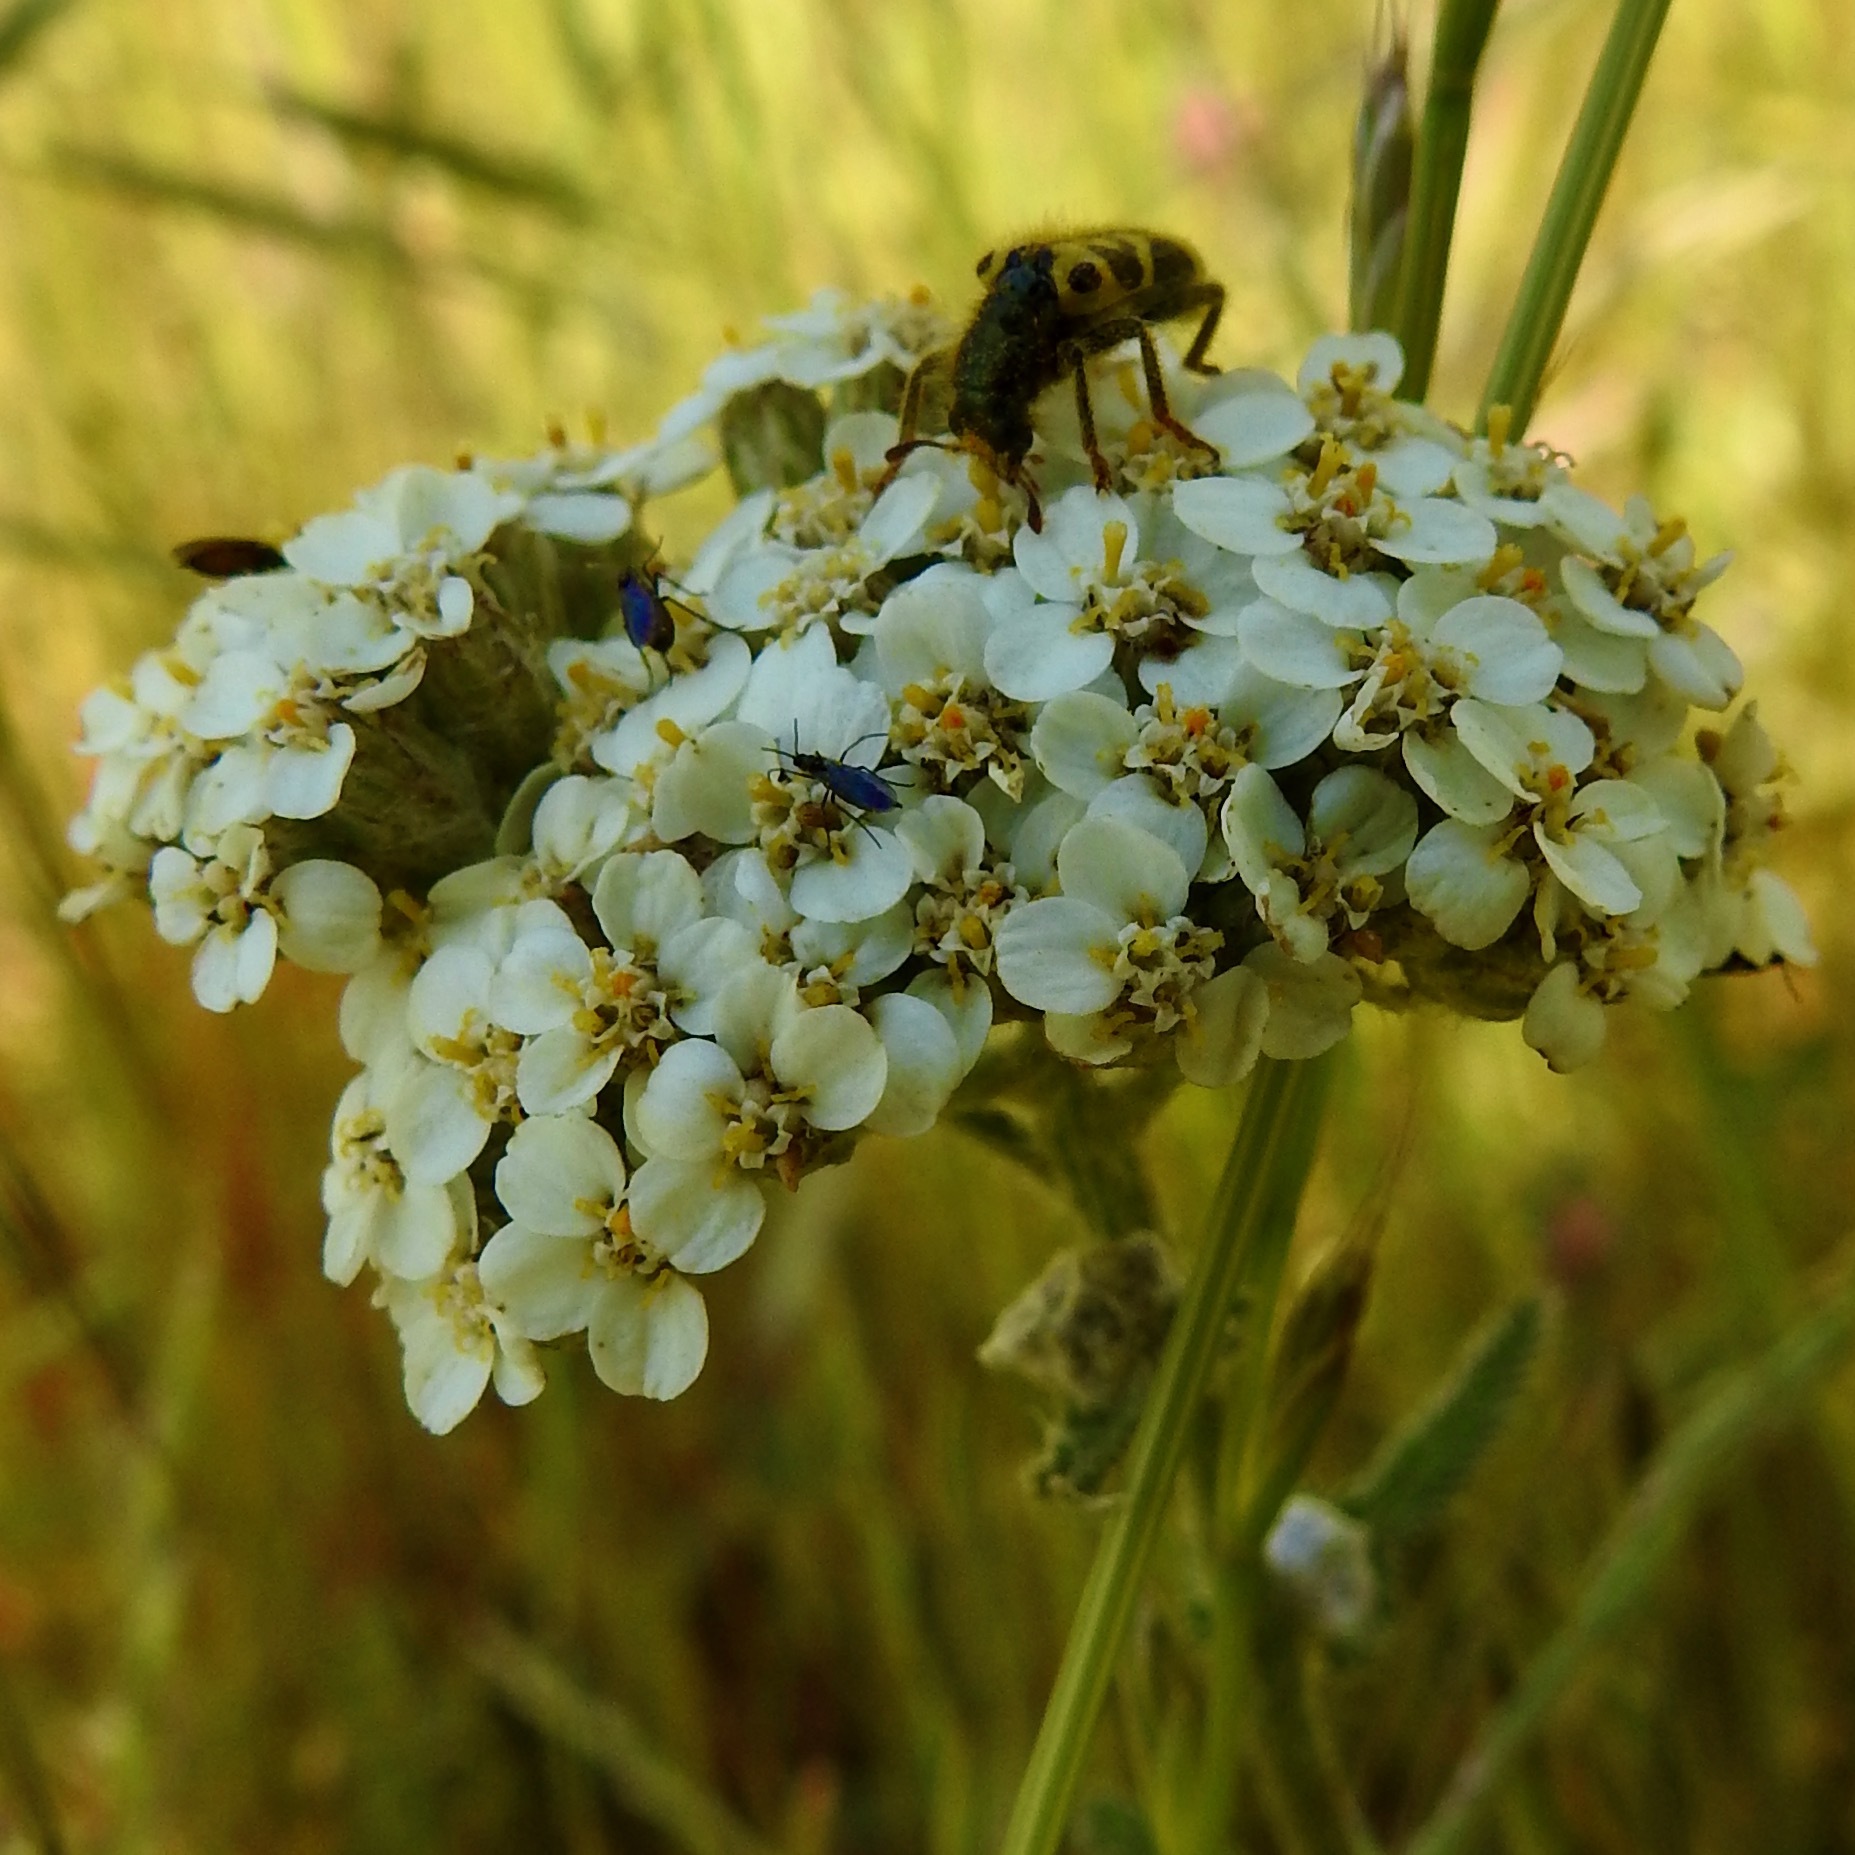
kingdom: Plantae
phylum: Tracheophyta
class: Magnoliopsida
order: Asterales
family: Asteraceae
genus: Achillea
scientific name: Achillea millefolium
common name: Yarrow
